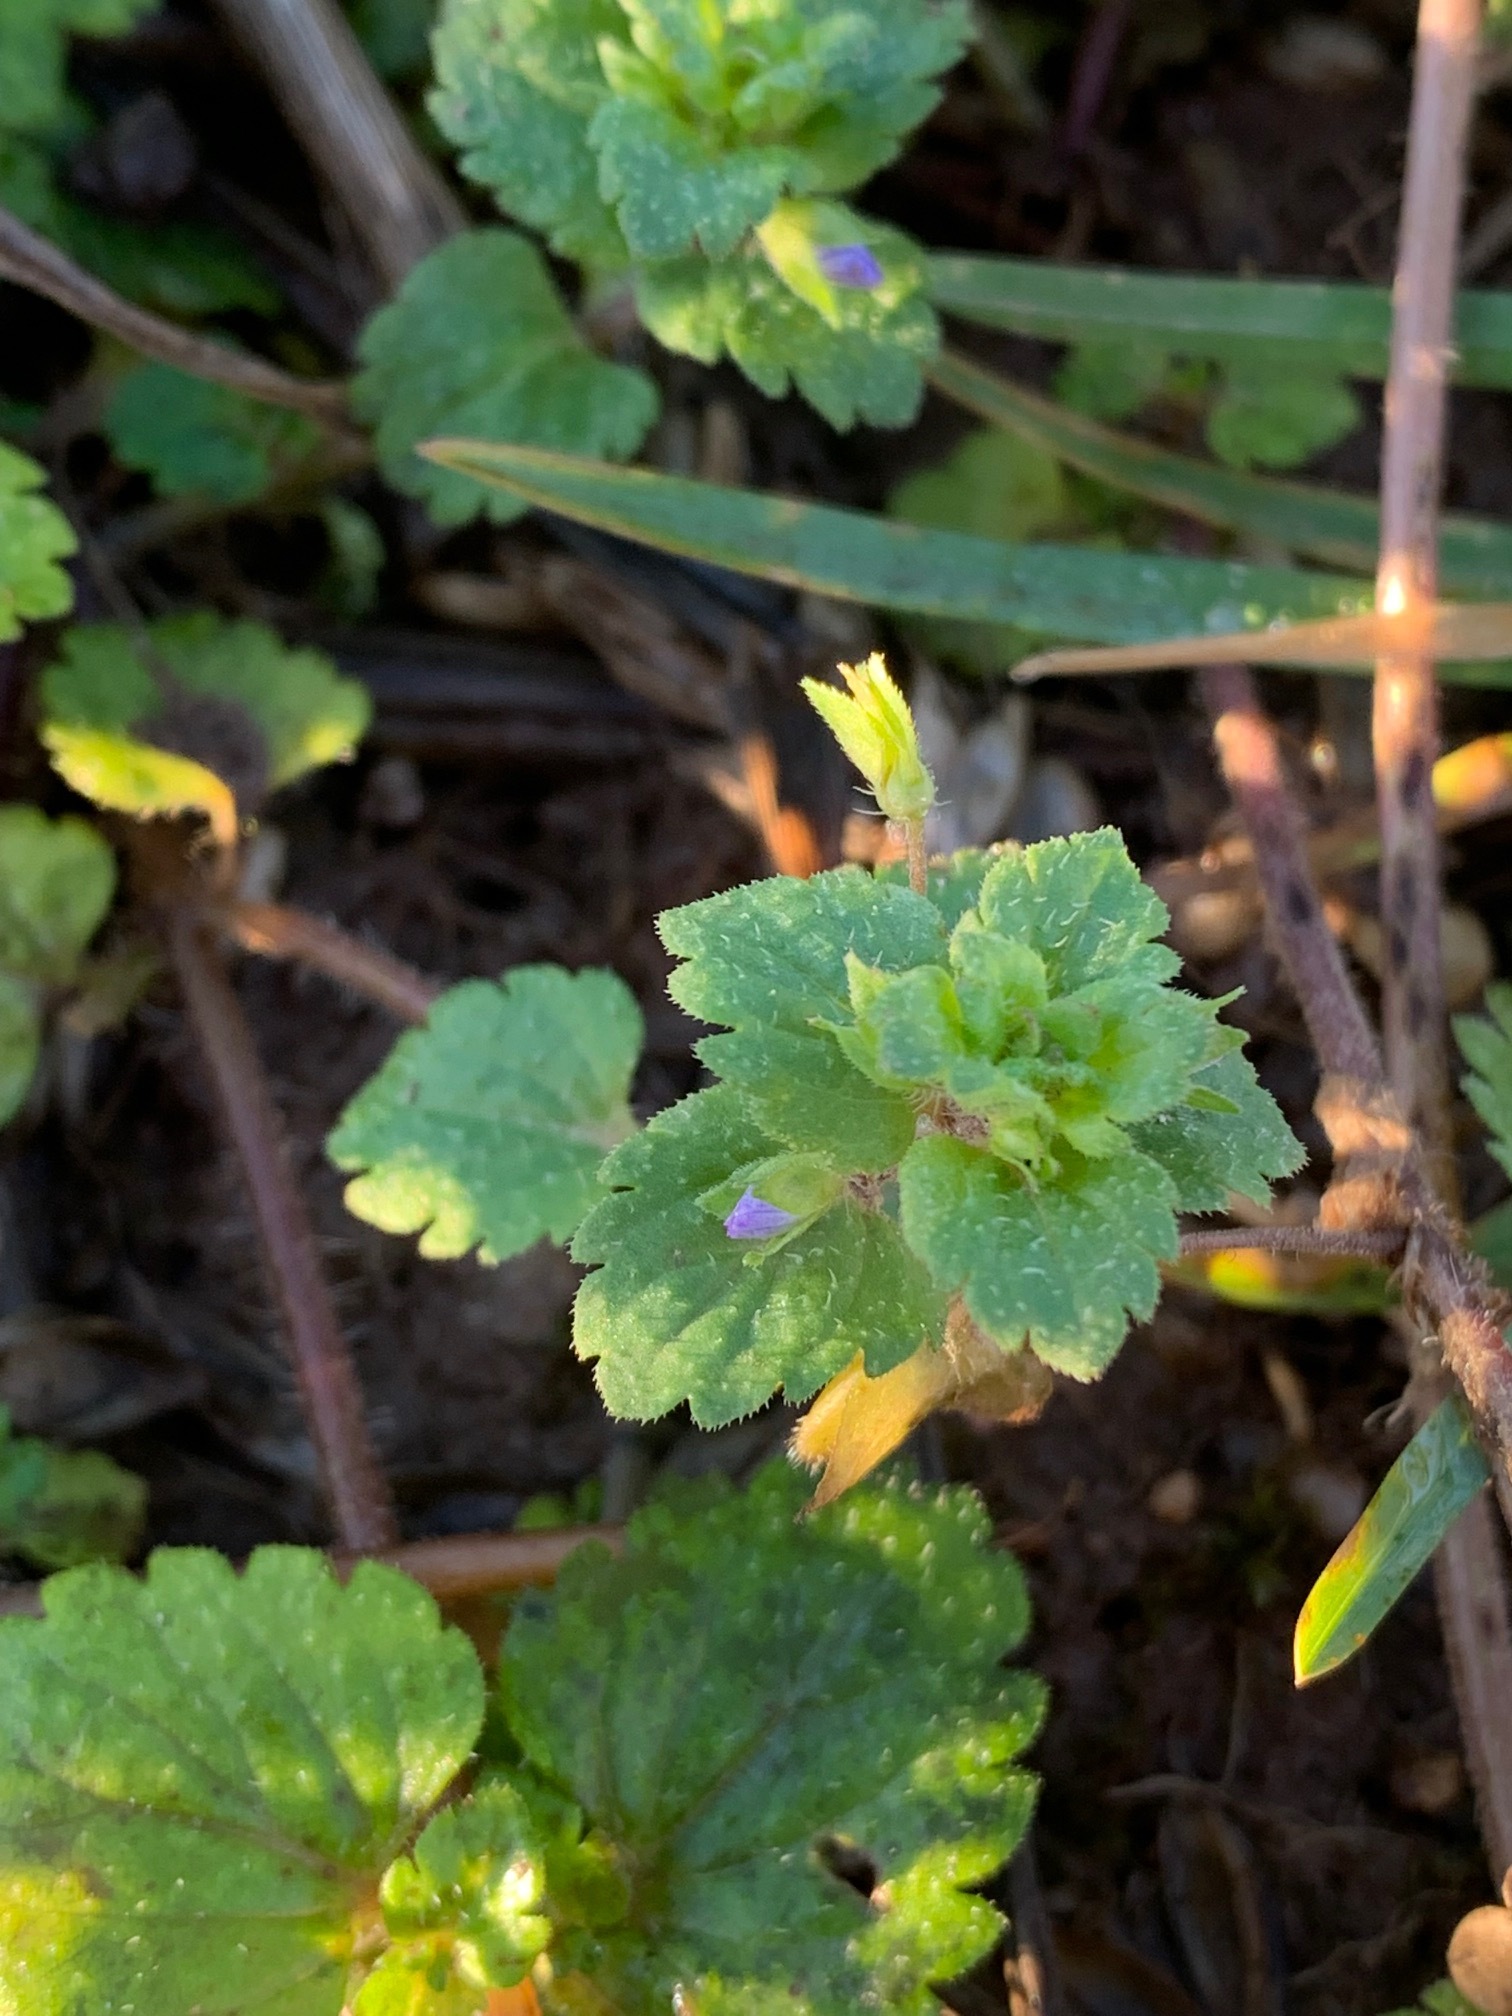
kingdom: Plantae
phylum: Tracheophyta
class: Magnoliopsida
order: Lamiales
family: Plantaginaceae
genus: Veronica
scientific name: Veronica persica
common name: Common field-speedwell
